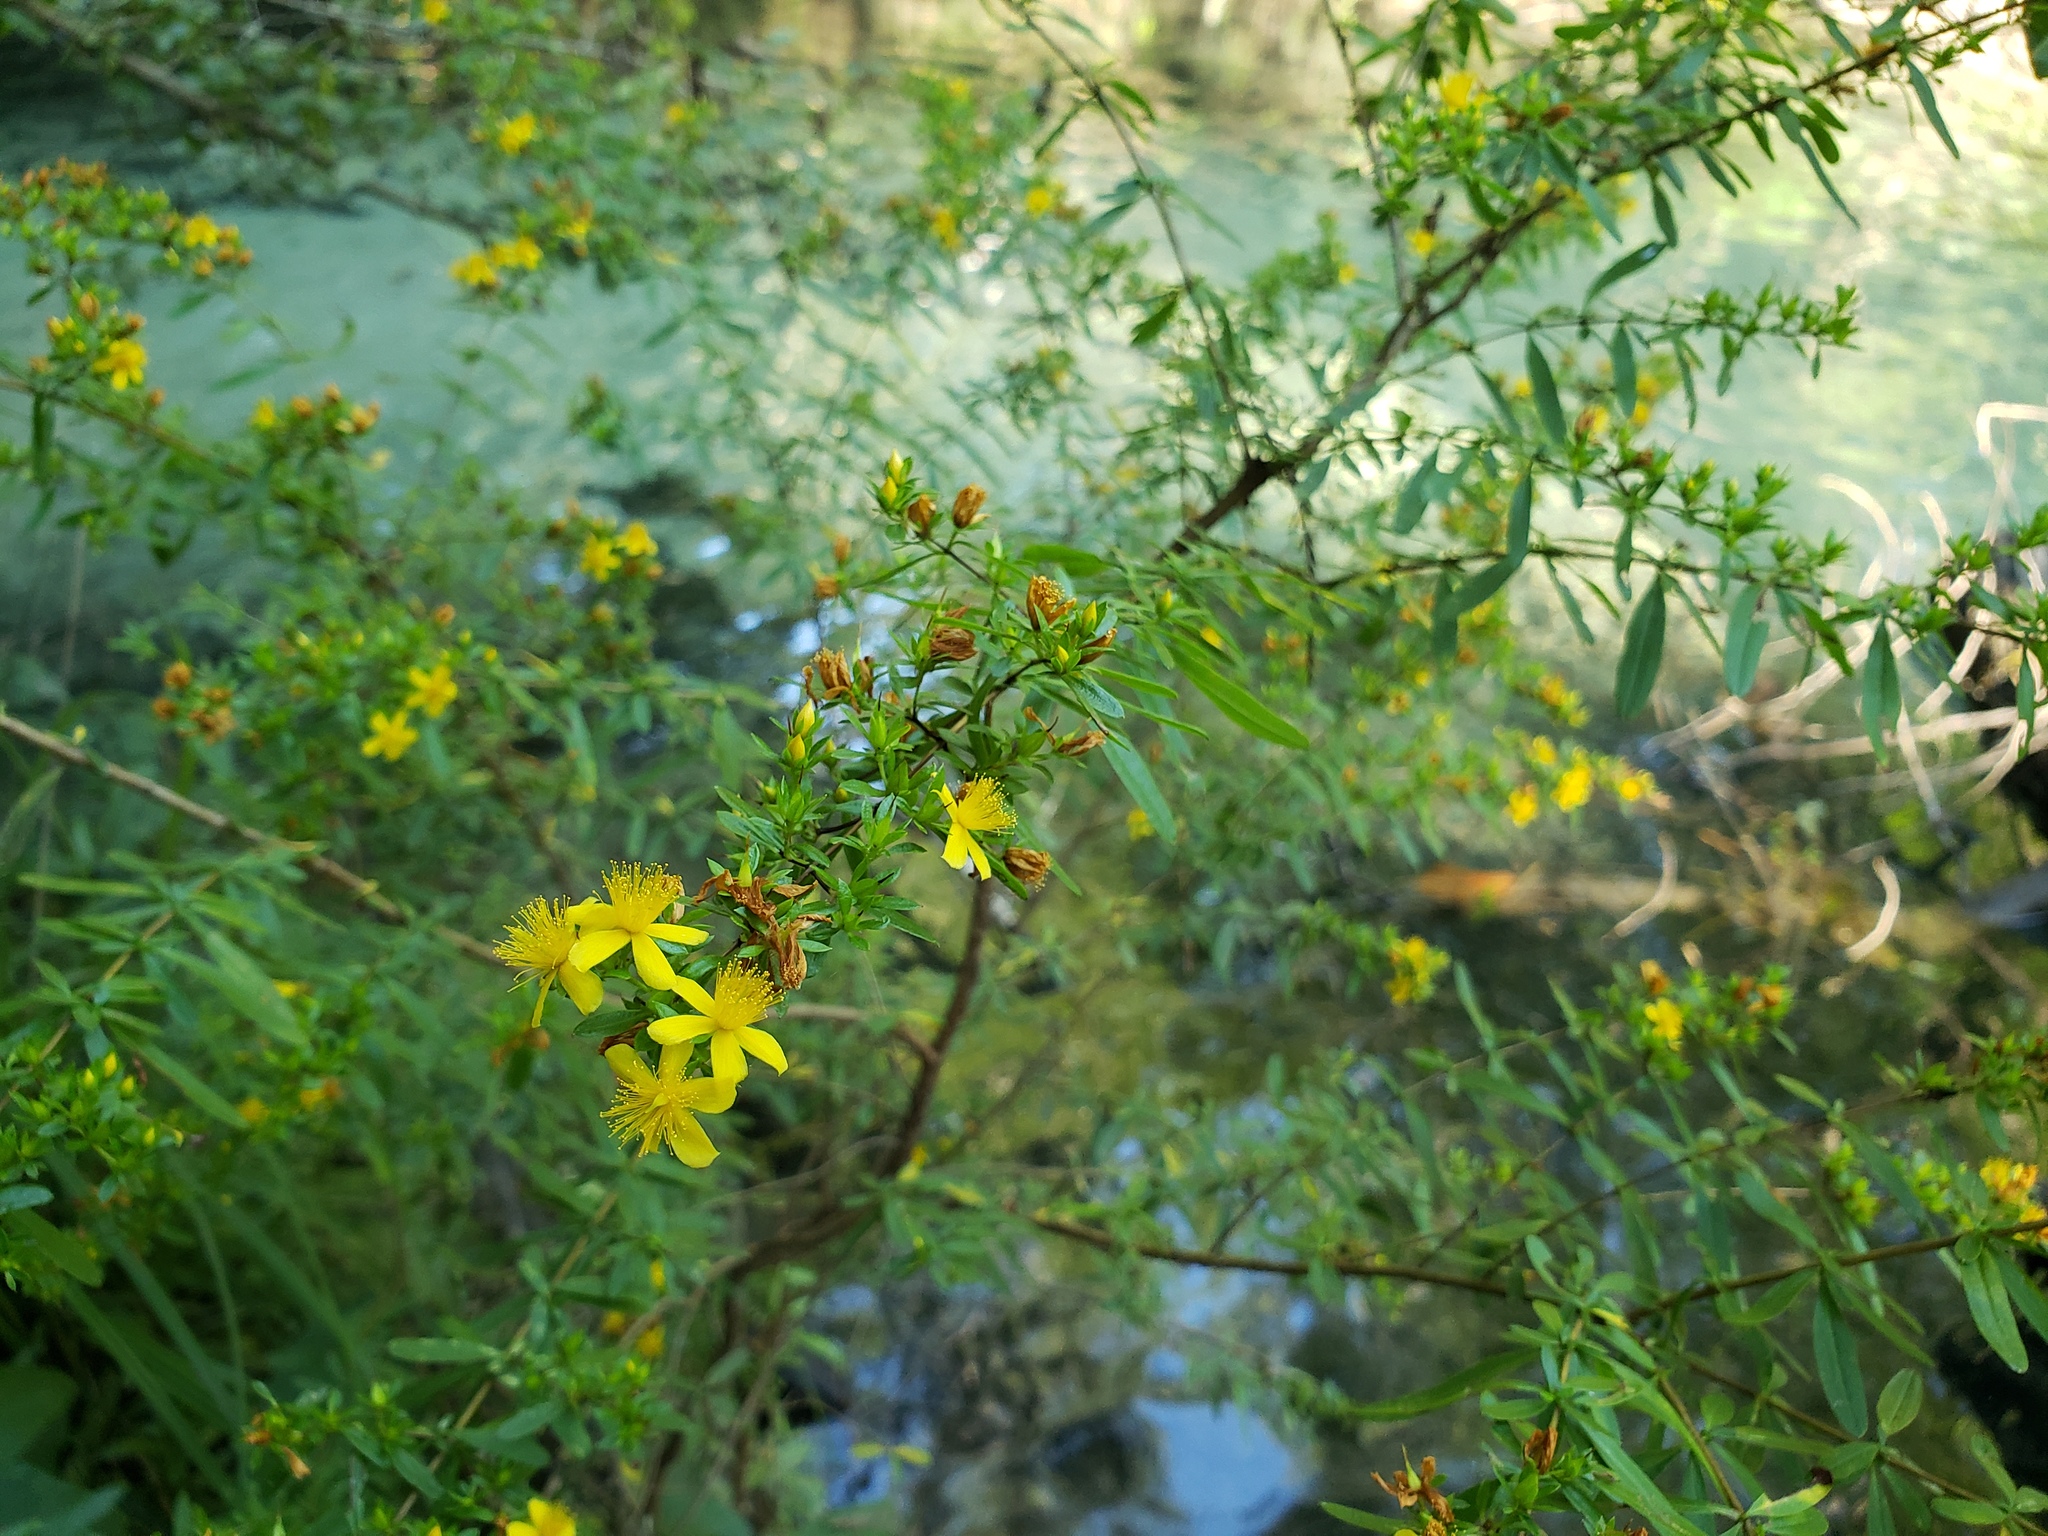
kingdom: Plantae
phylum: Tracheophyta
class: Magnoliopsida
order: Malpighiales
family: Hypericaceae
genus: Hypericum
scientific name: Hypericum galioides
